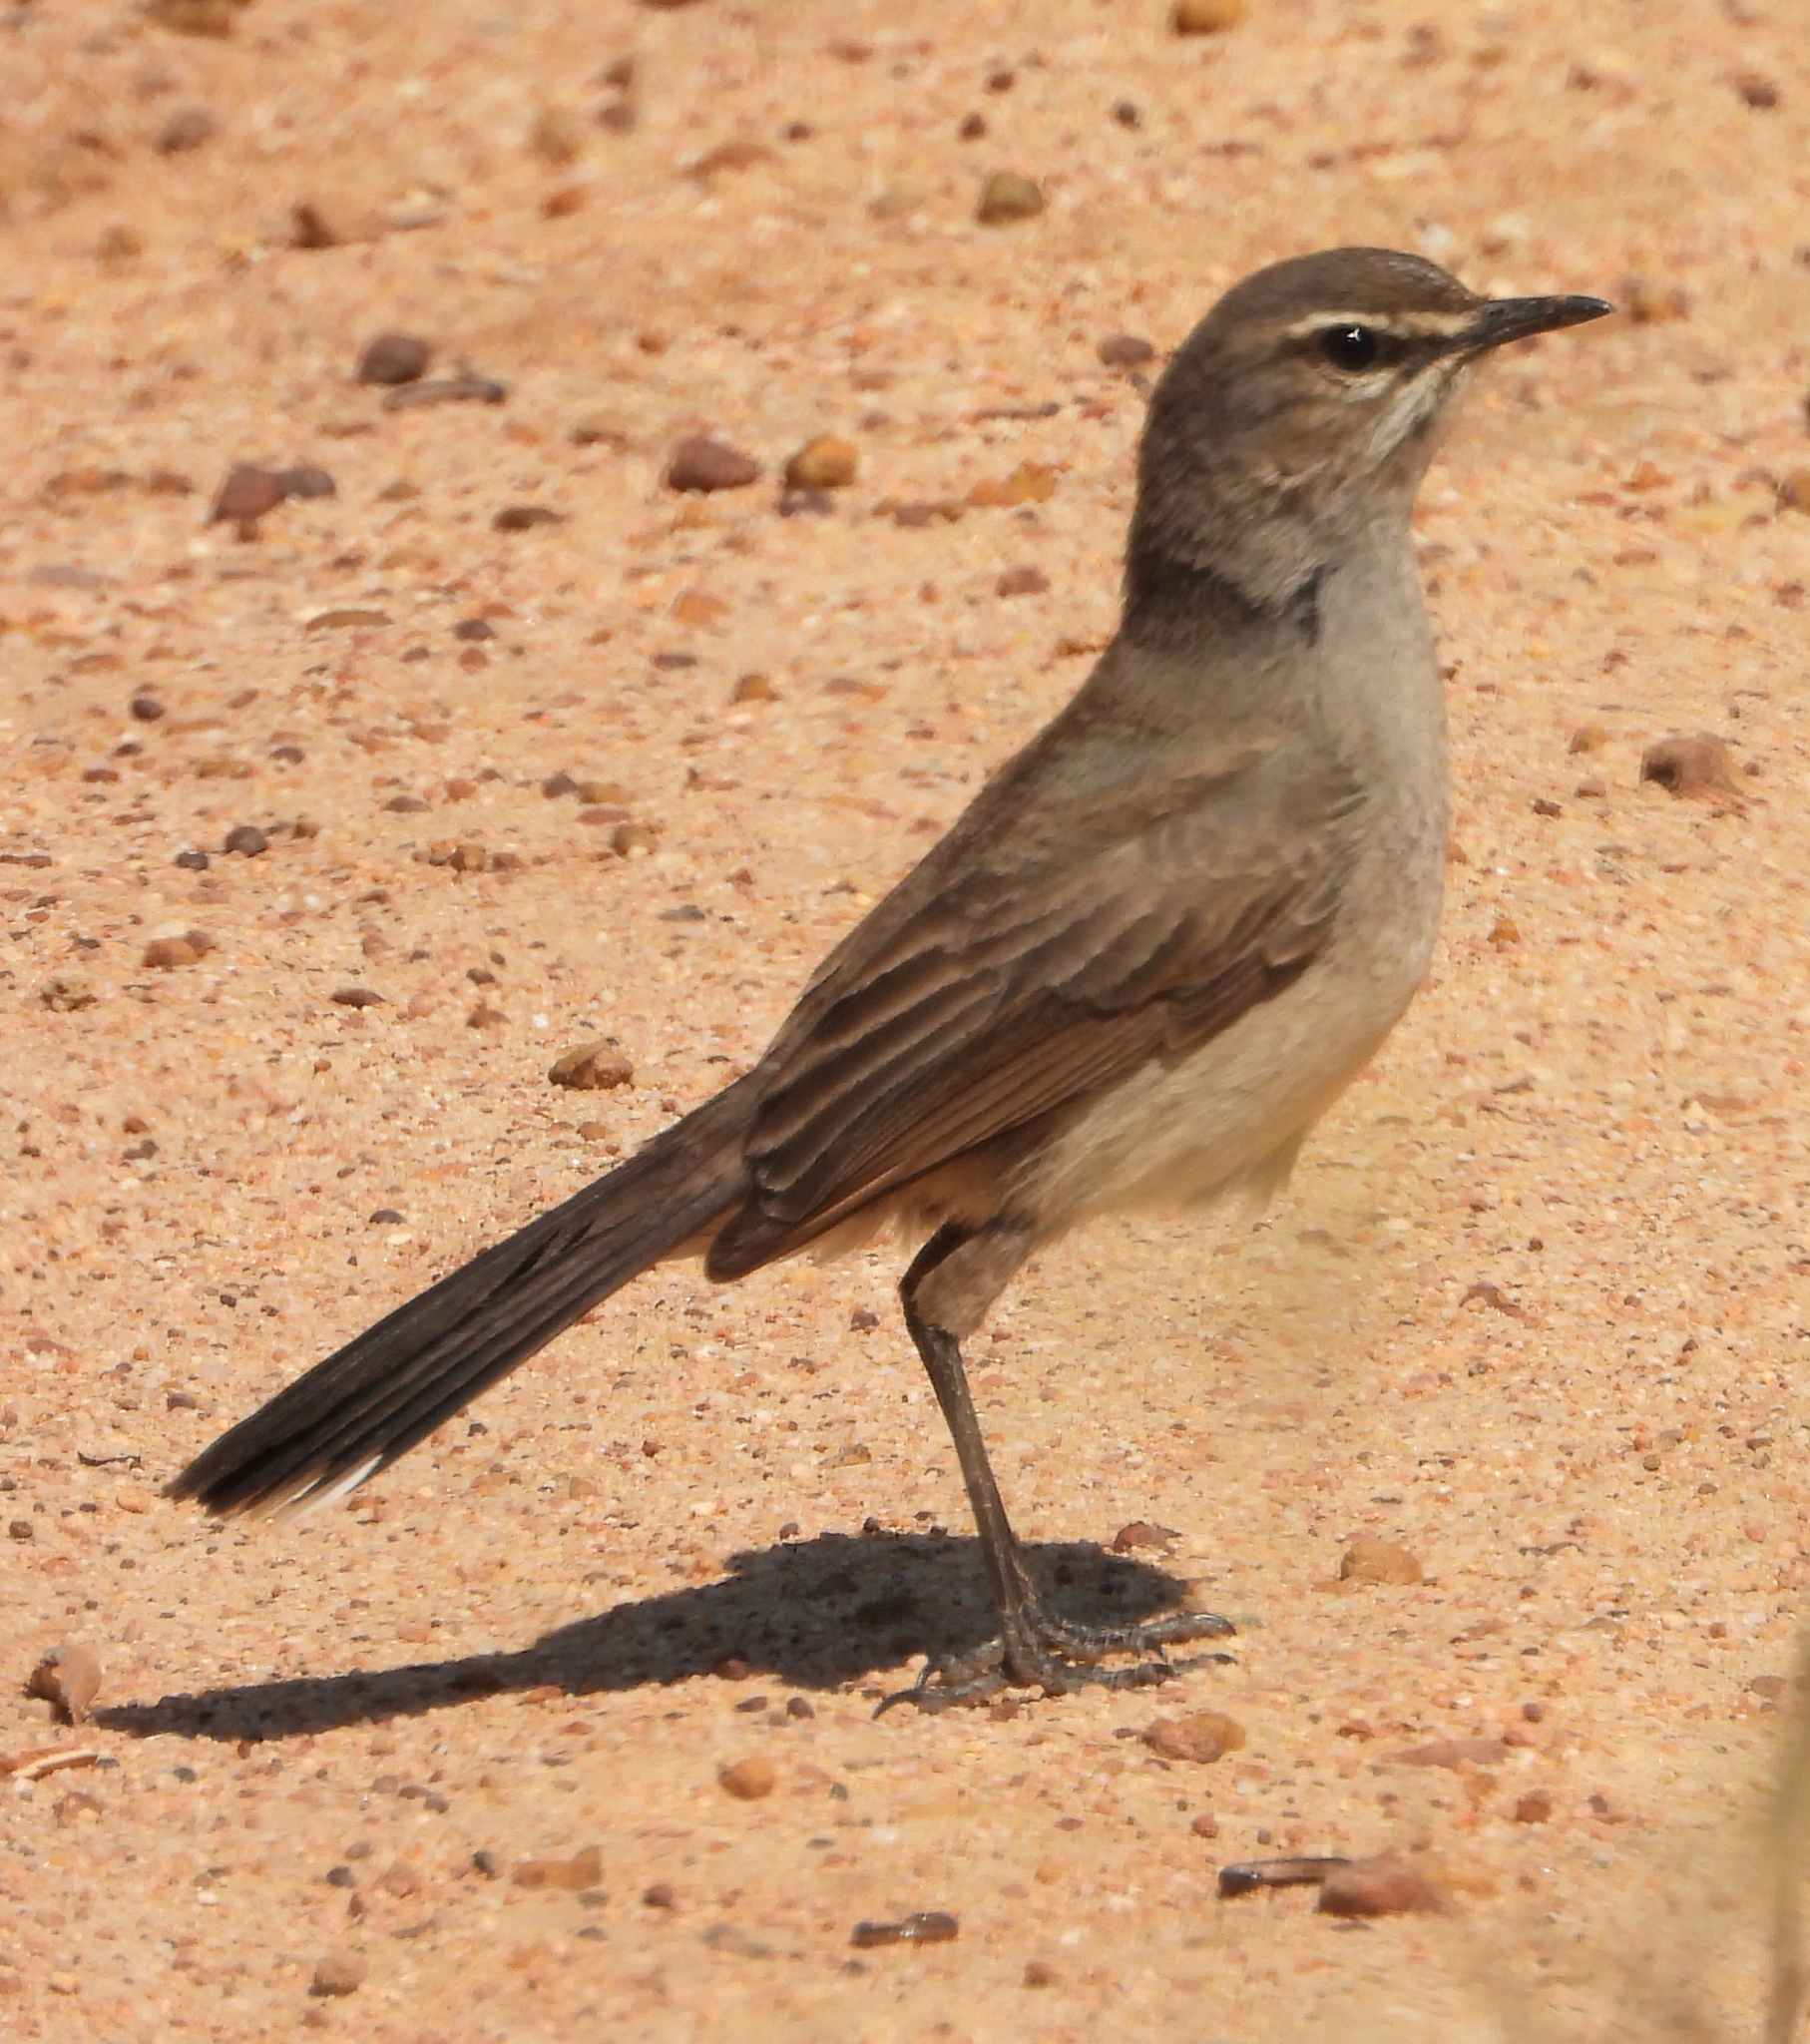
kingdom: Animalia
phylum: Chordata
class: Aves
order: Passeriformes
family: Muscicapidae
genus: Erythropygia
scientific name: Erythropygia coryphoeus
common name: Karoo scrub robin
